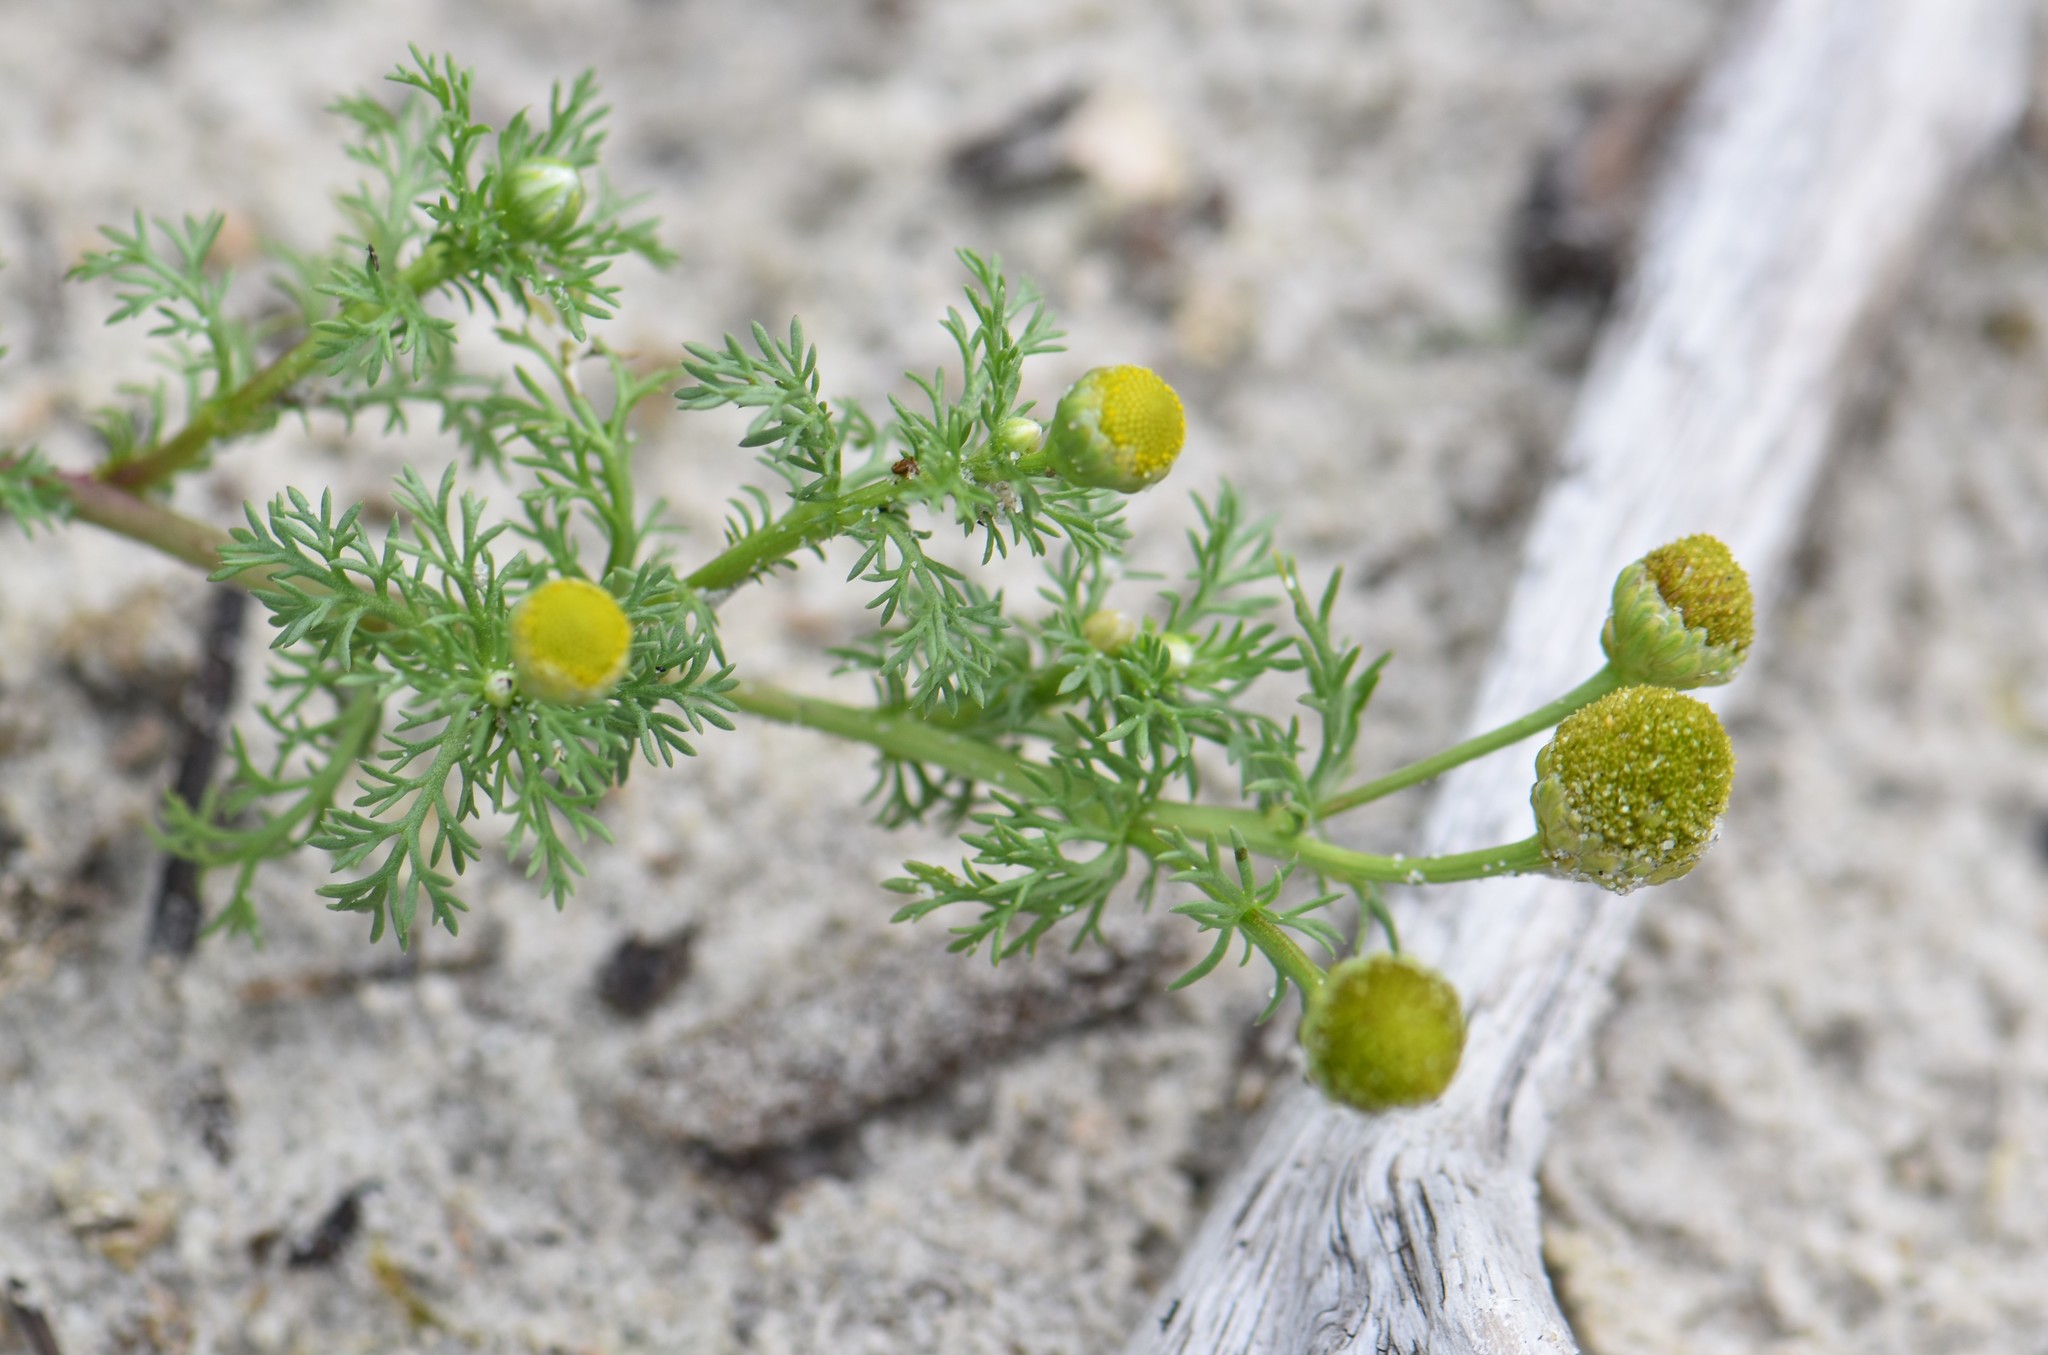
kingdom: Plantae
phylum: Tracheophyta
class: Magnoliopsida
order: Asterales
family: Asteraceae
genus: Matricaria
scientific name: Matricaria discoidea
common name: Disc mayweed
